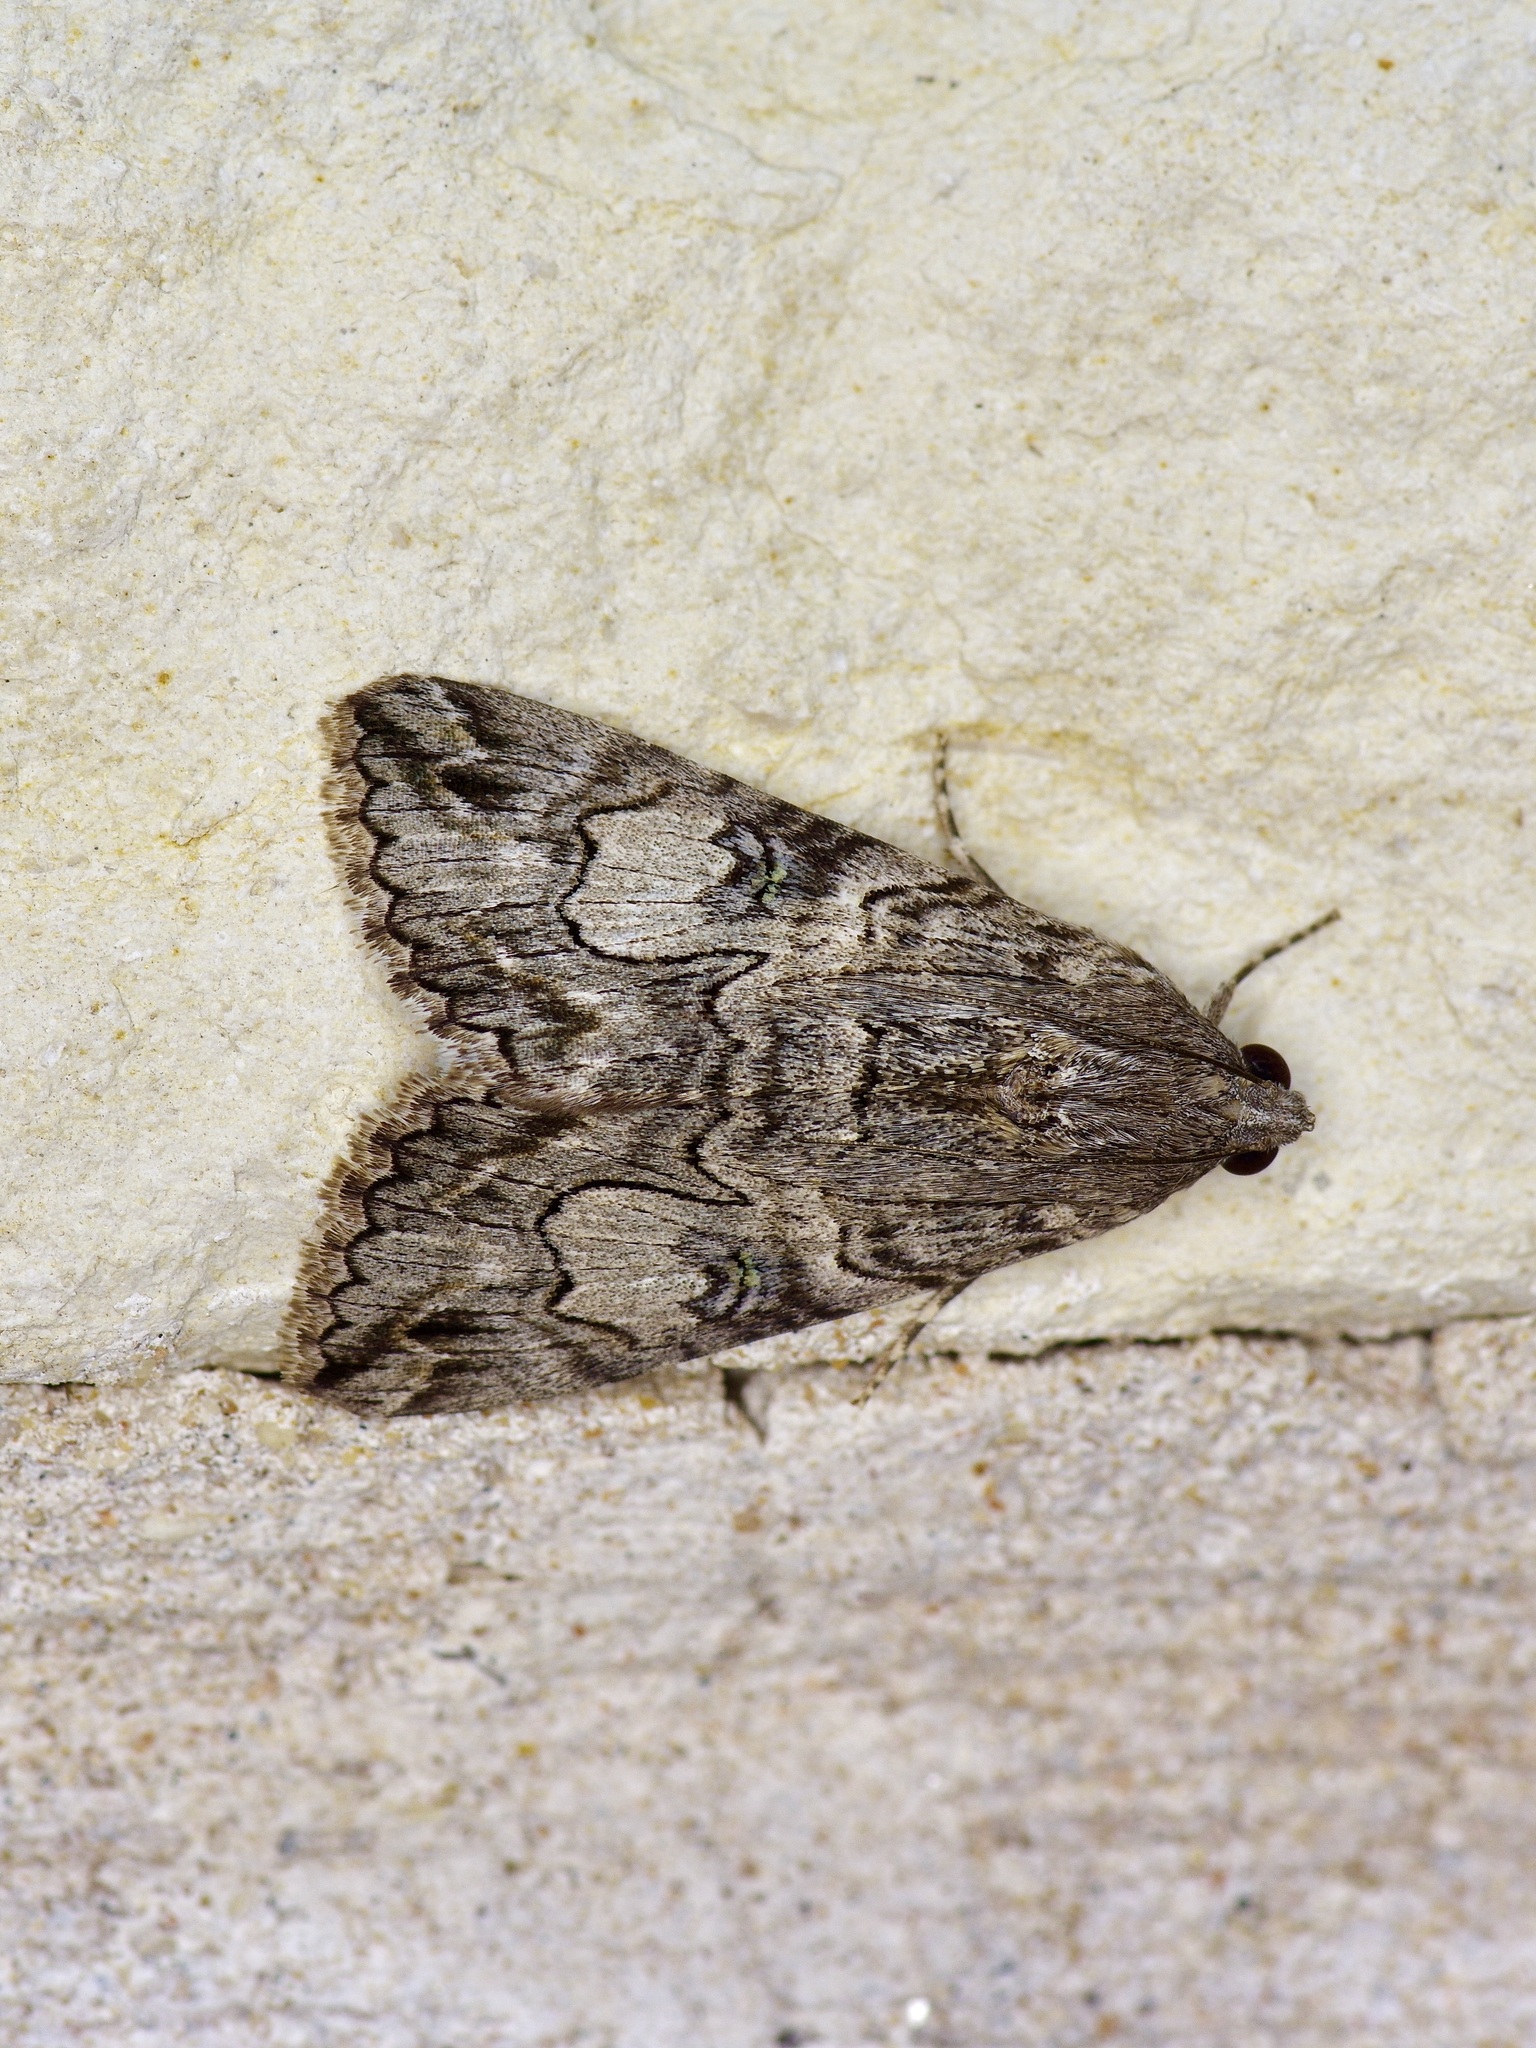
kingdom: Animalia
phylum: Arthropoda
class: Insecta
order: Lepidoptera
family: Erebidae
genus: Melipotis
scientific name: Melipotis jucunda
